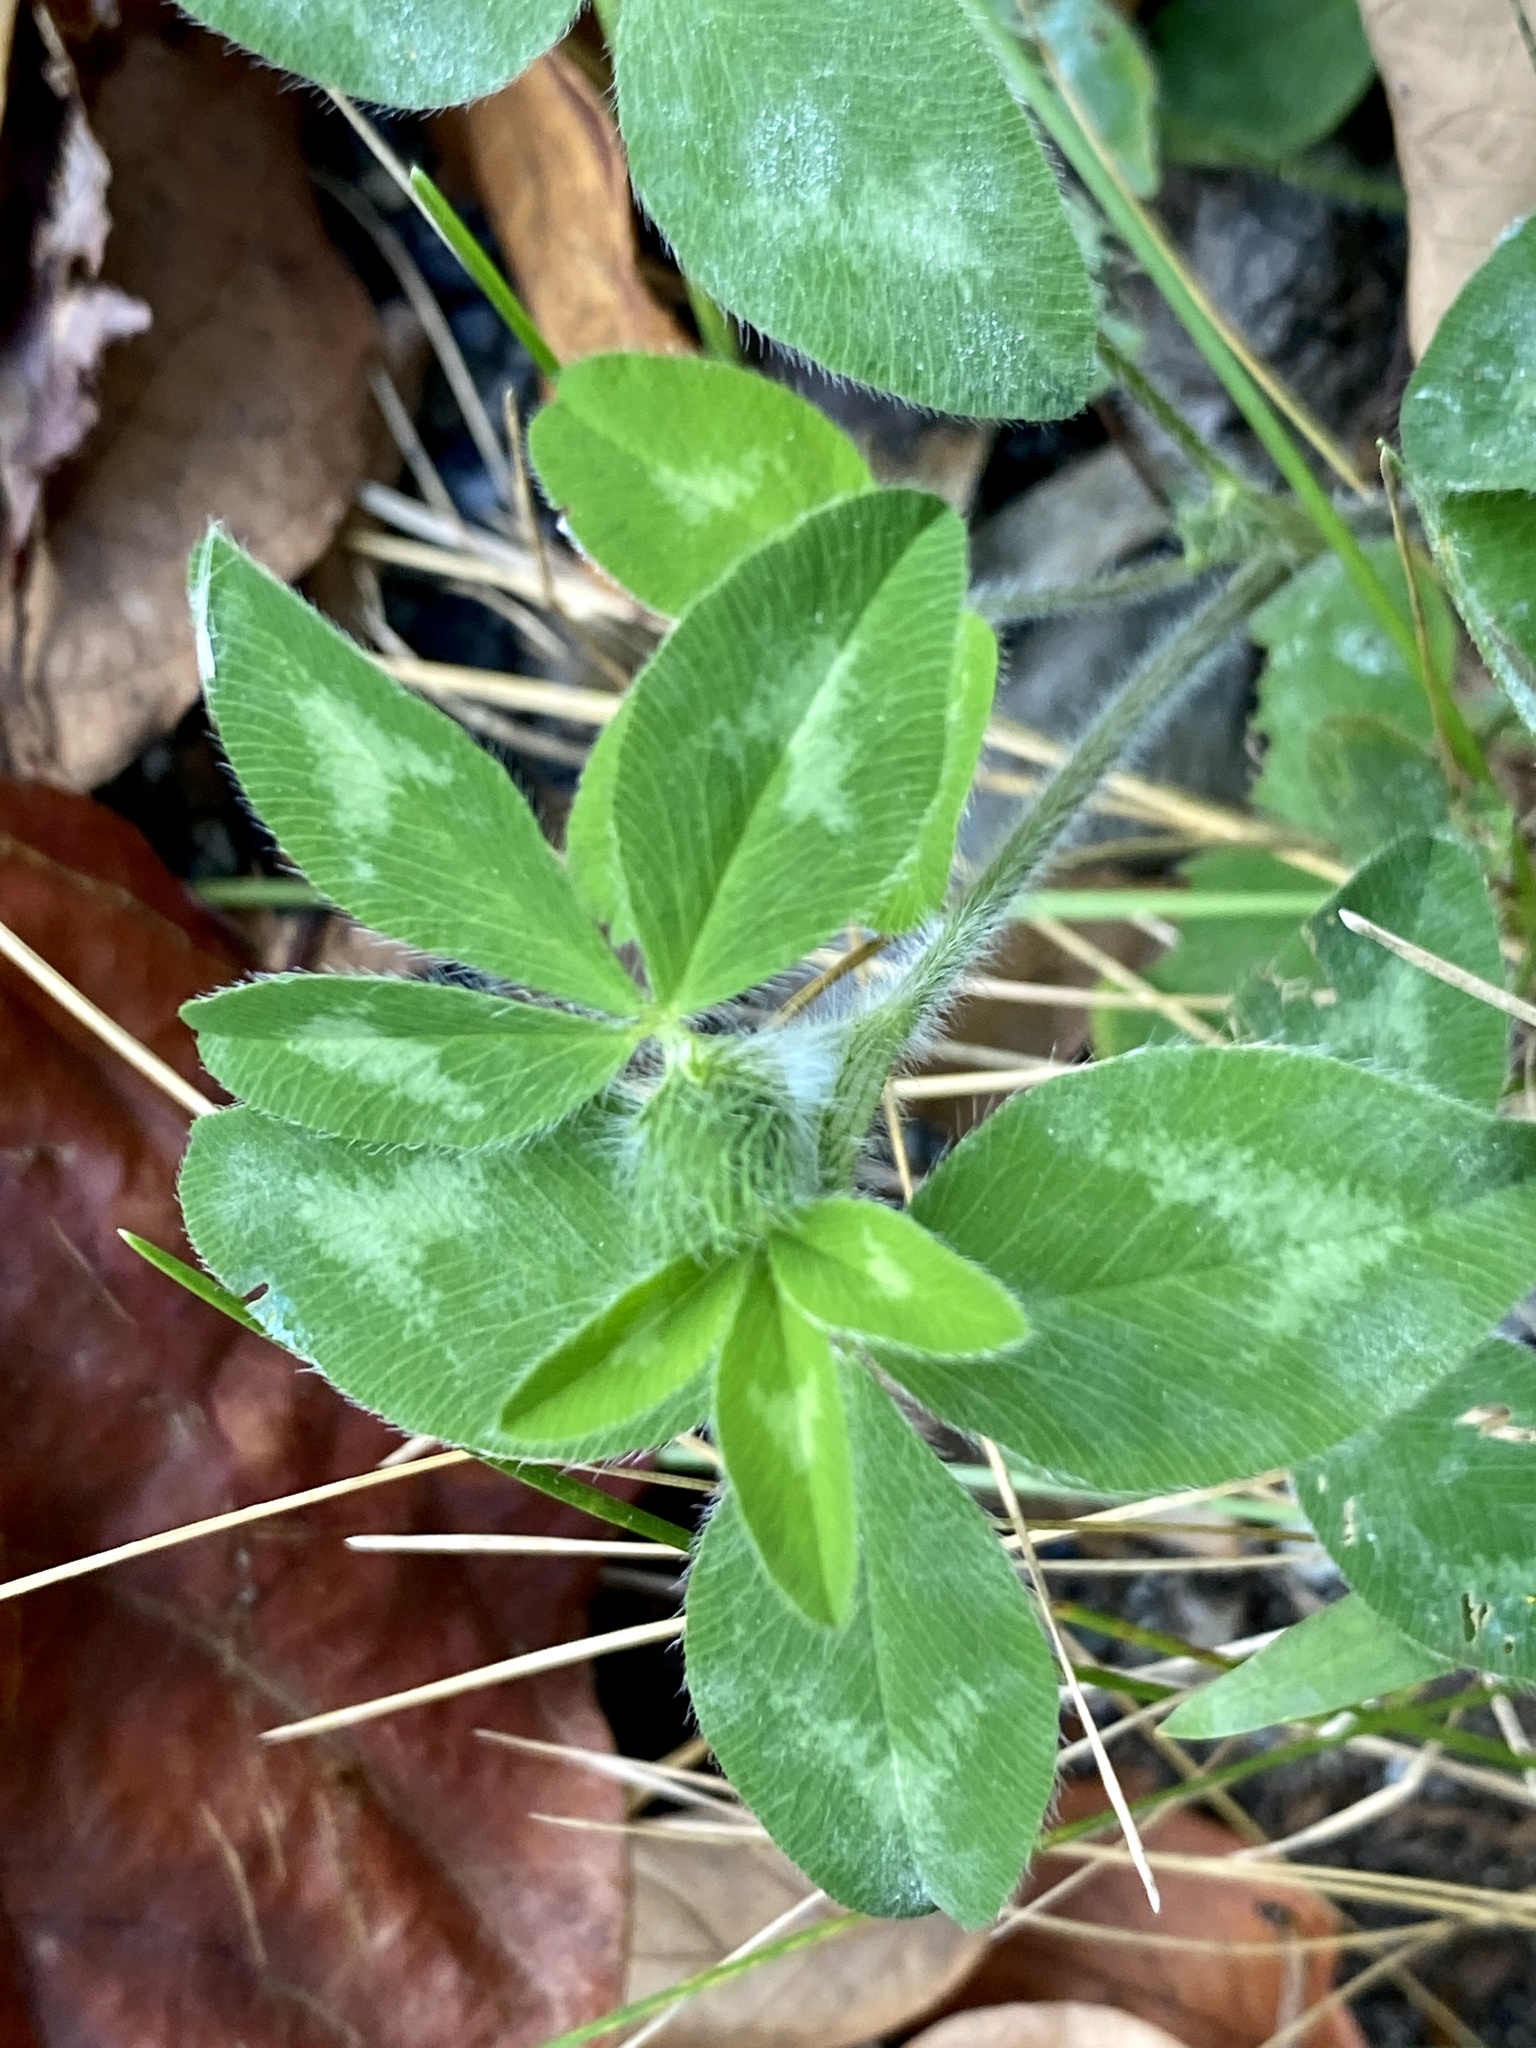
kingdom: Plantae
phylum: Tracheophyta
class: Magnoliopsida
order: Fabales
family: Fabaceae
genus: Trifolium
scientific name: Trifolium pratense
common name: Red clover
